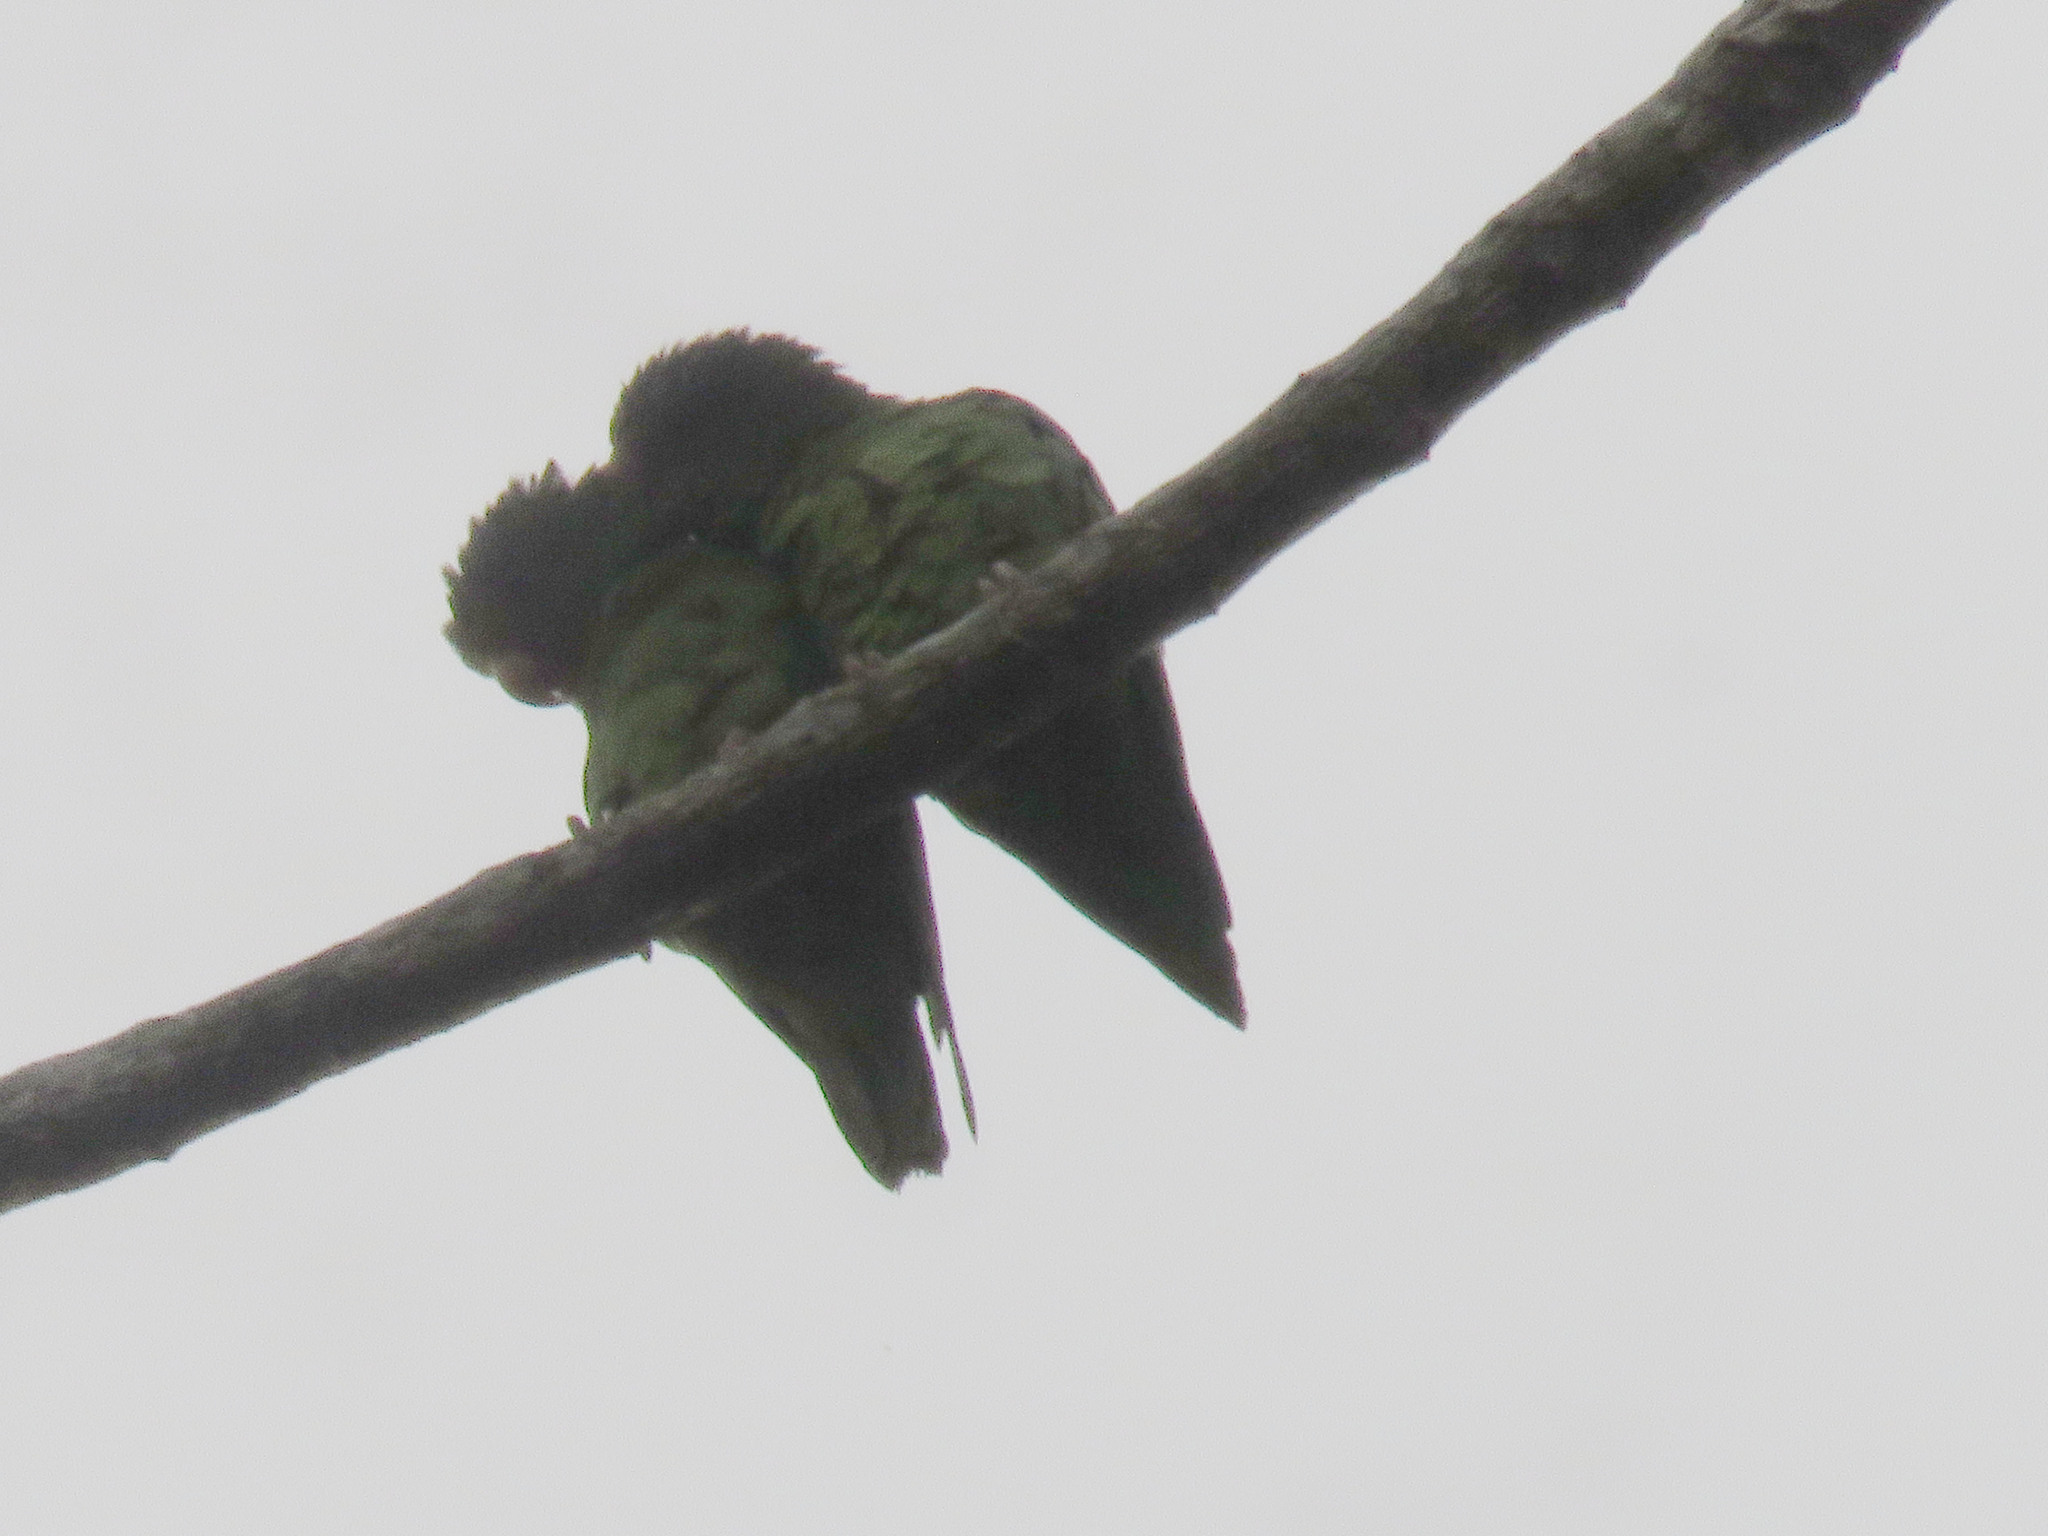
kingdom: Animalia
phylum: Chordata
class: Aves
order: Psittaciformes
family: Psittacidae
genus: Forpus
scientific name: Forpus modestus
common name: Dusky-billed parrotlet
